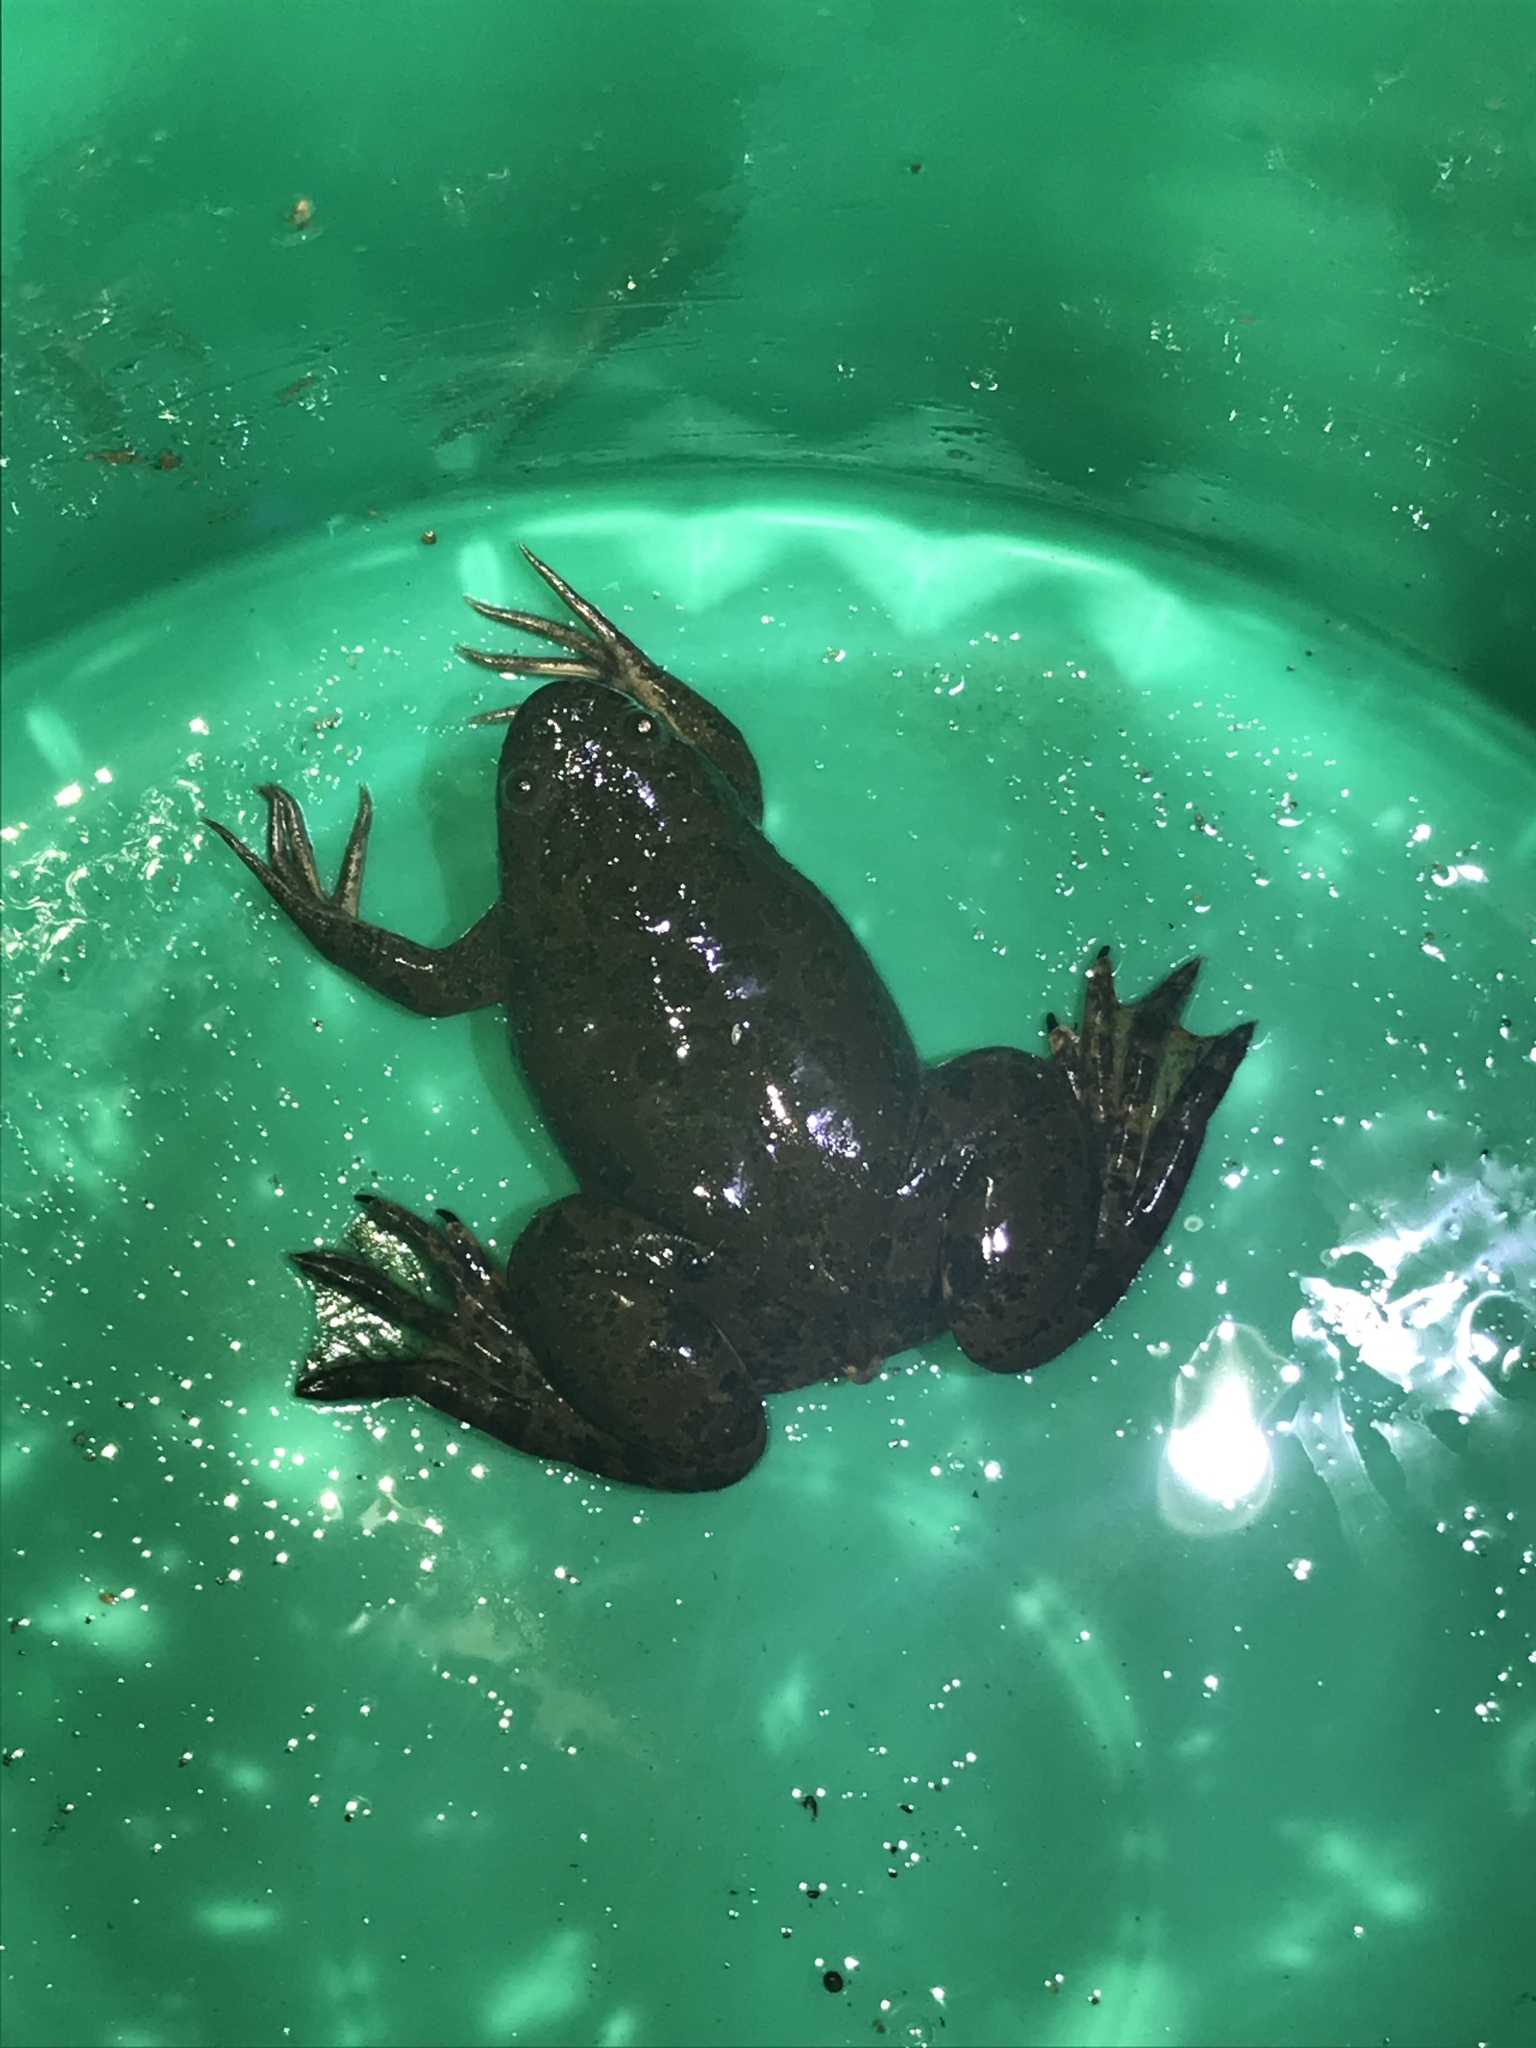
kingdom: Animalia
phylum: Chordata
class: Amphibia
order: Anura
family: Pipidae
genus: Xenopus
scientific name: Xenopus laevis
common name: African clawed frog
